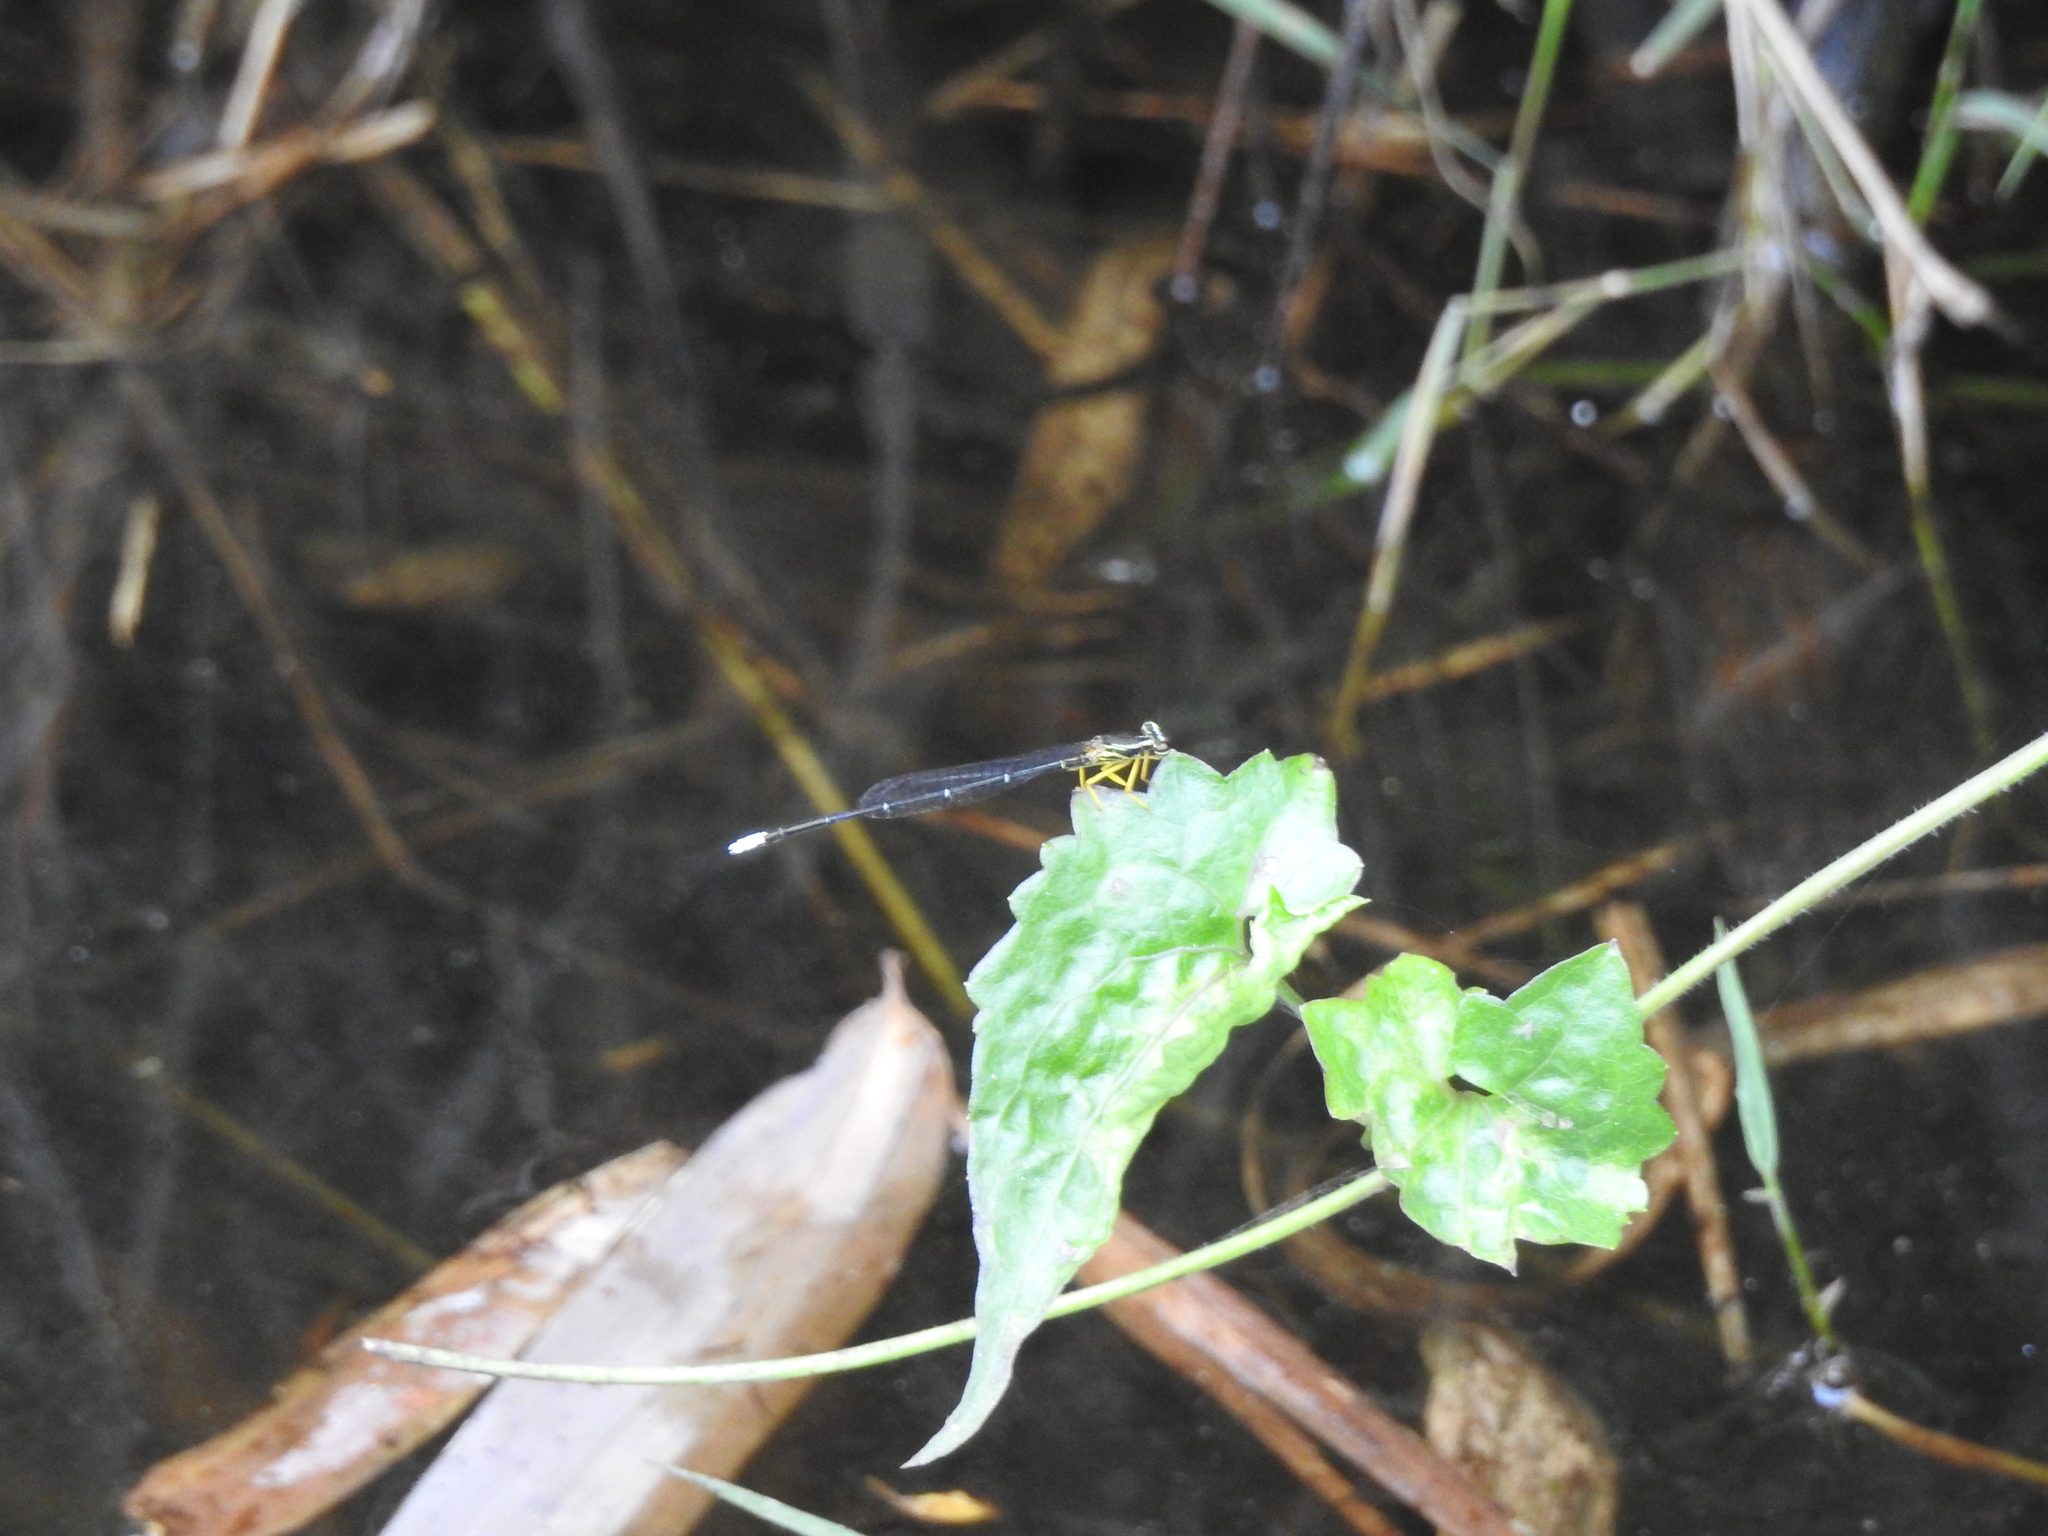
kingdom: Animalia
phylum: Arthropoda
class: Insecta
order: Odonata
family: Platycnemididae
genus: Copera
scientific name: Copera marginipes
